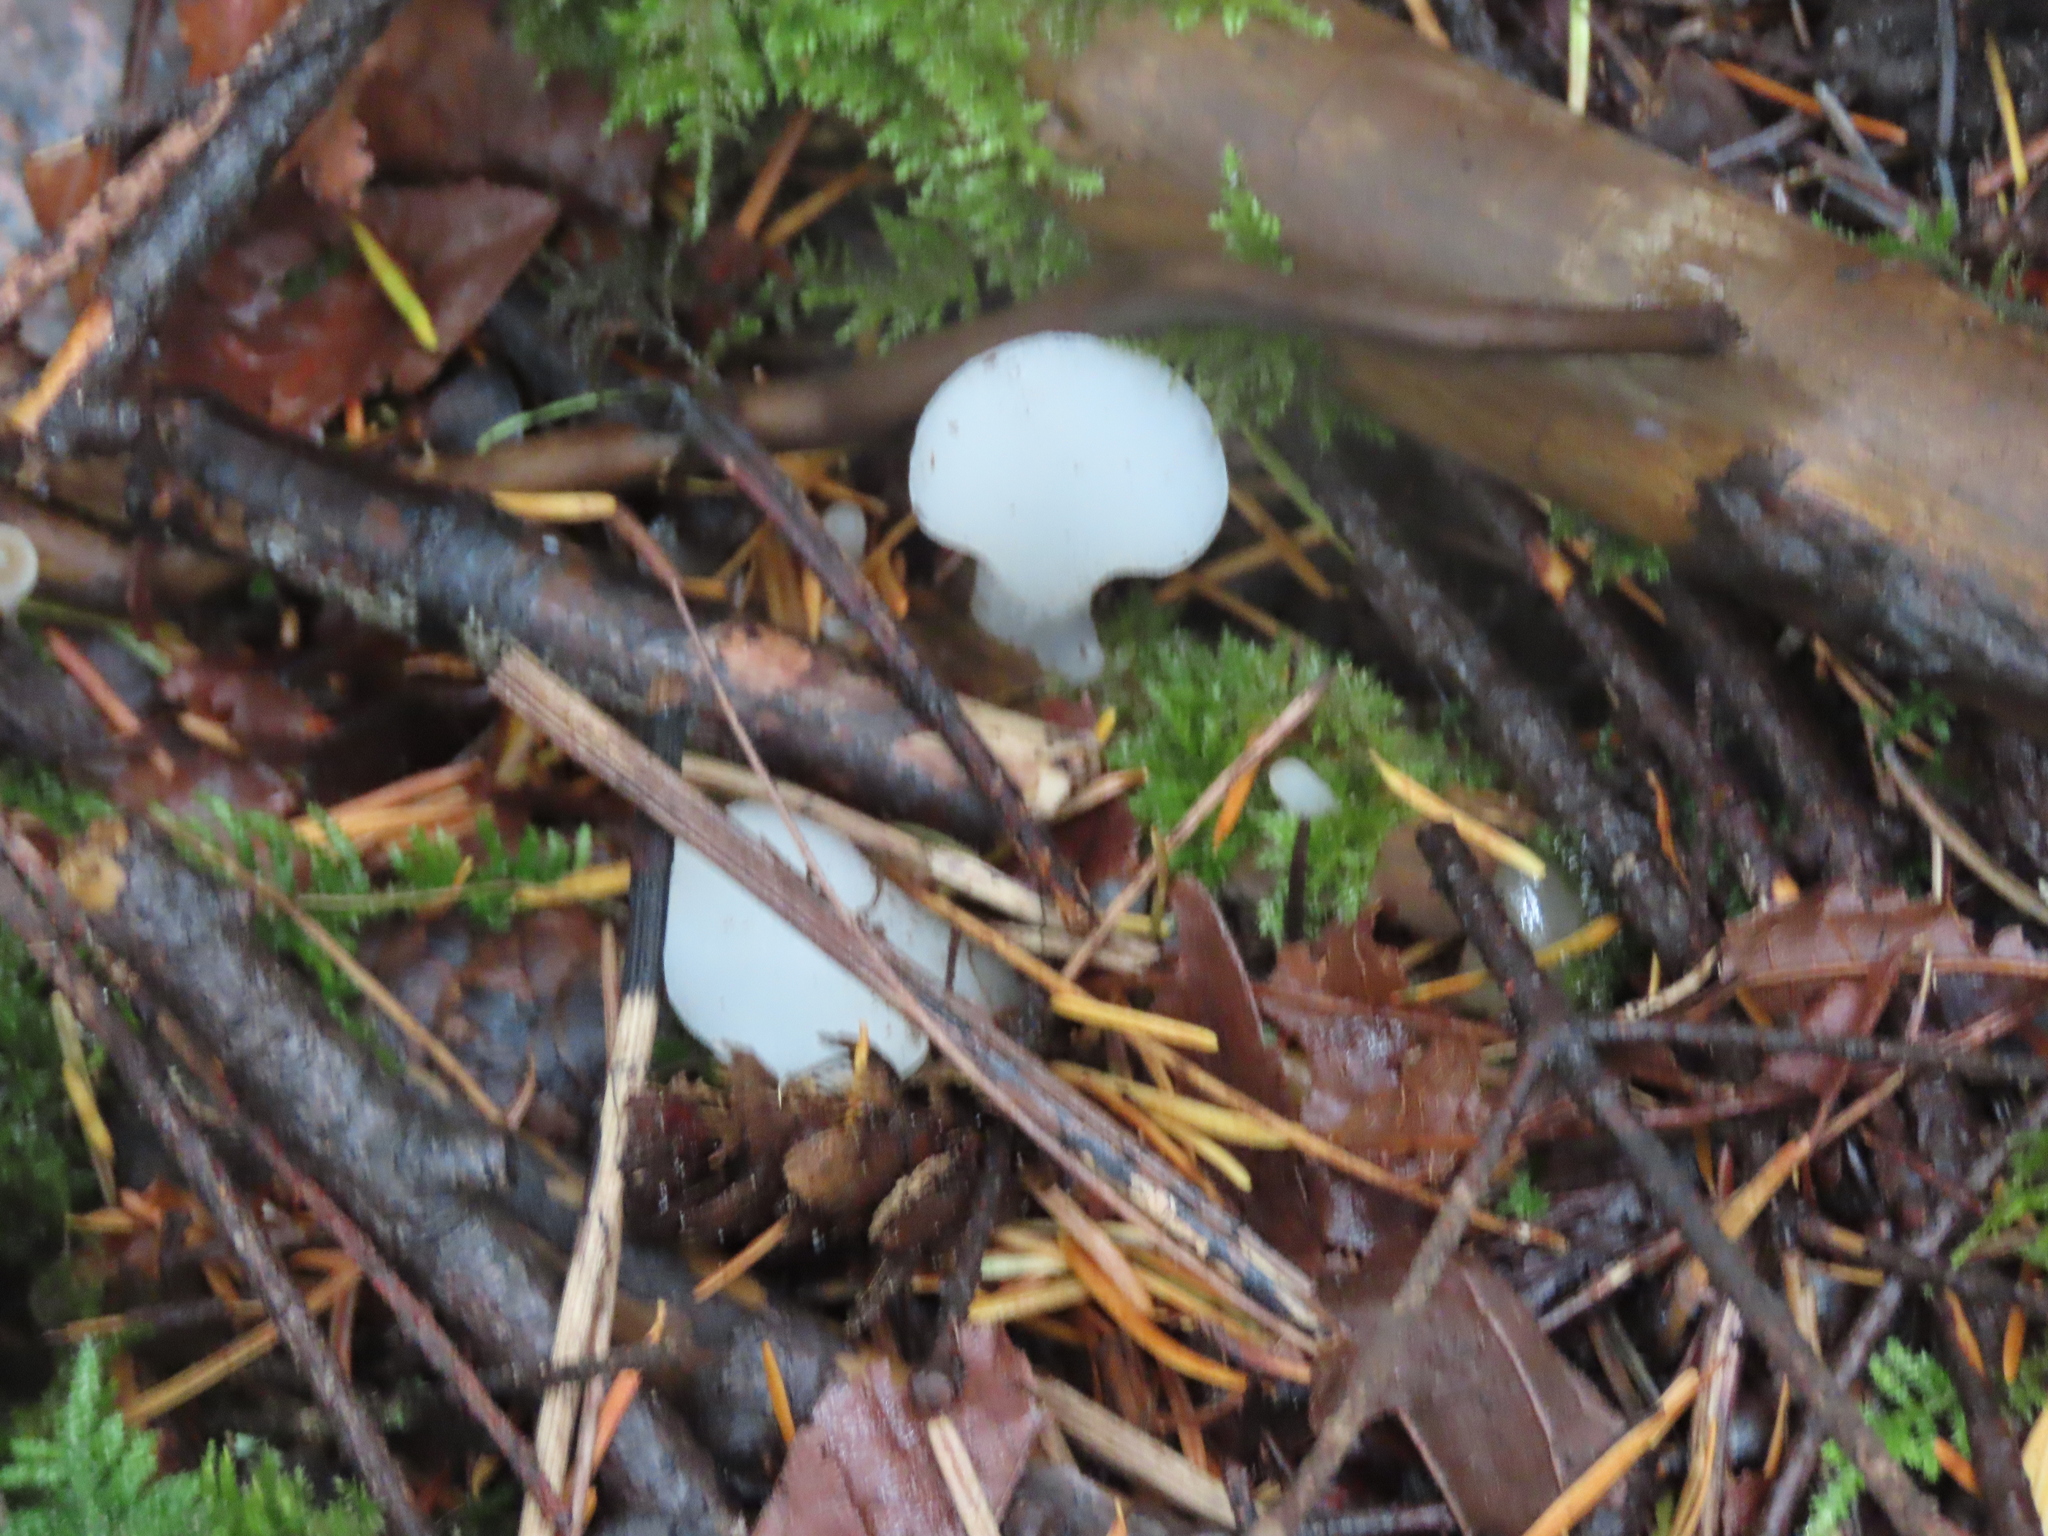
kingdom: Fungi
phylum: Basidiomycota
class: Agaricomycetes
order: Auriculariales
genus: Pseudohydnum
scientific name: Pseudohydnum gelatinosum
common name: Jelly tongue
